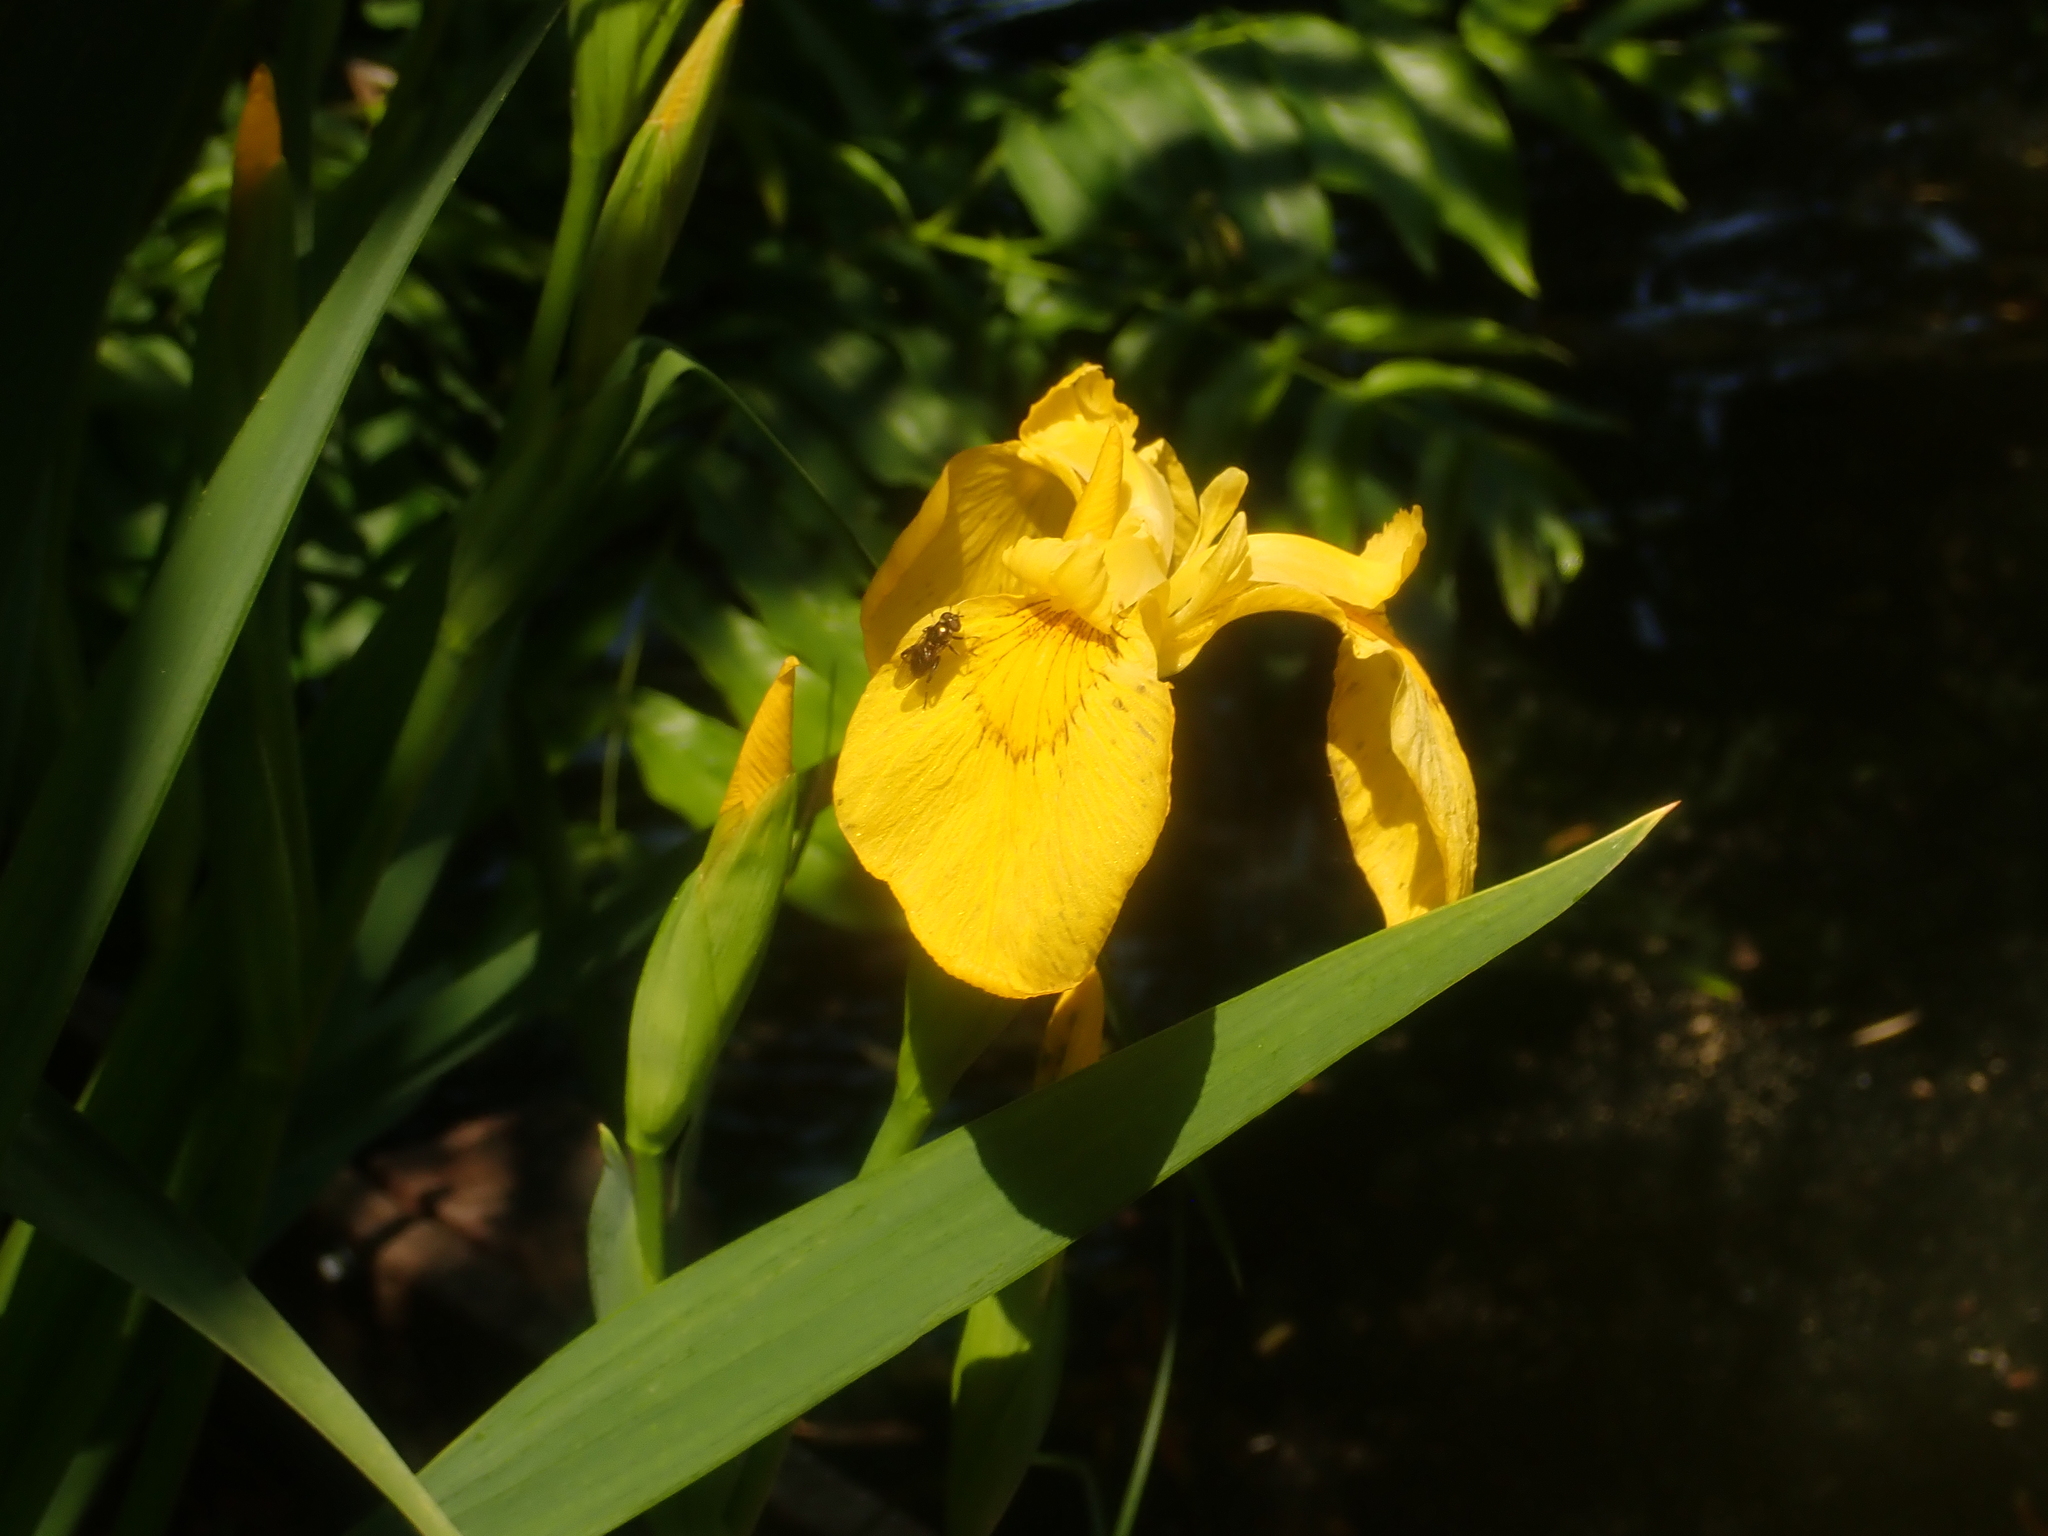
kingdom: Plantae
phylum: Tracheophyta
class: Liliopsida
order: Asparagales
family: Iridaceae
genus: Iris
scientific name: Iris pseudacorus
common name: Yellow flag
